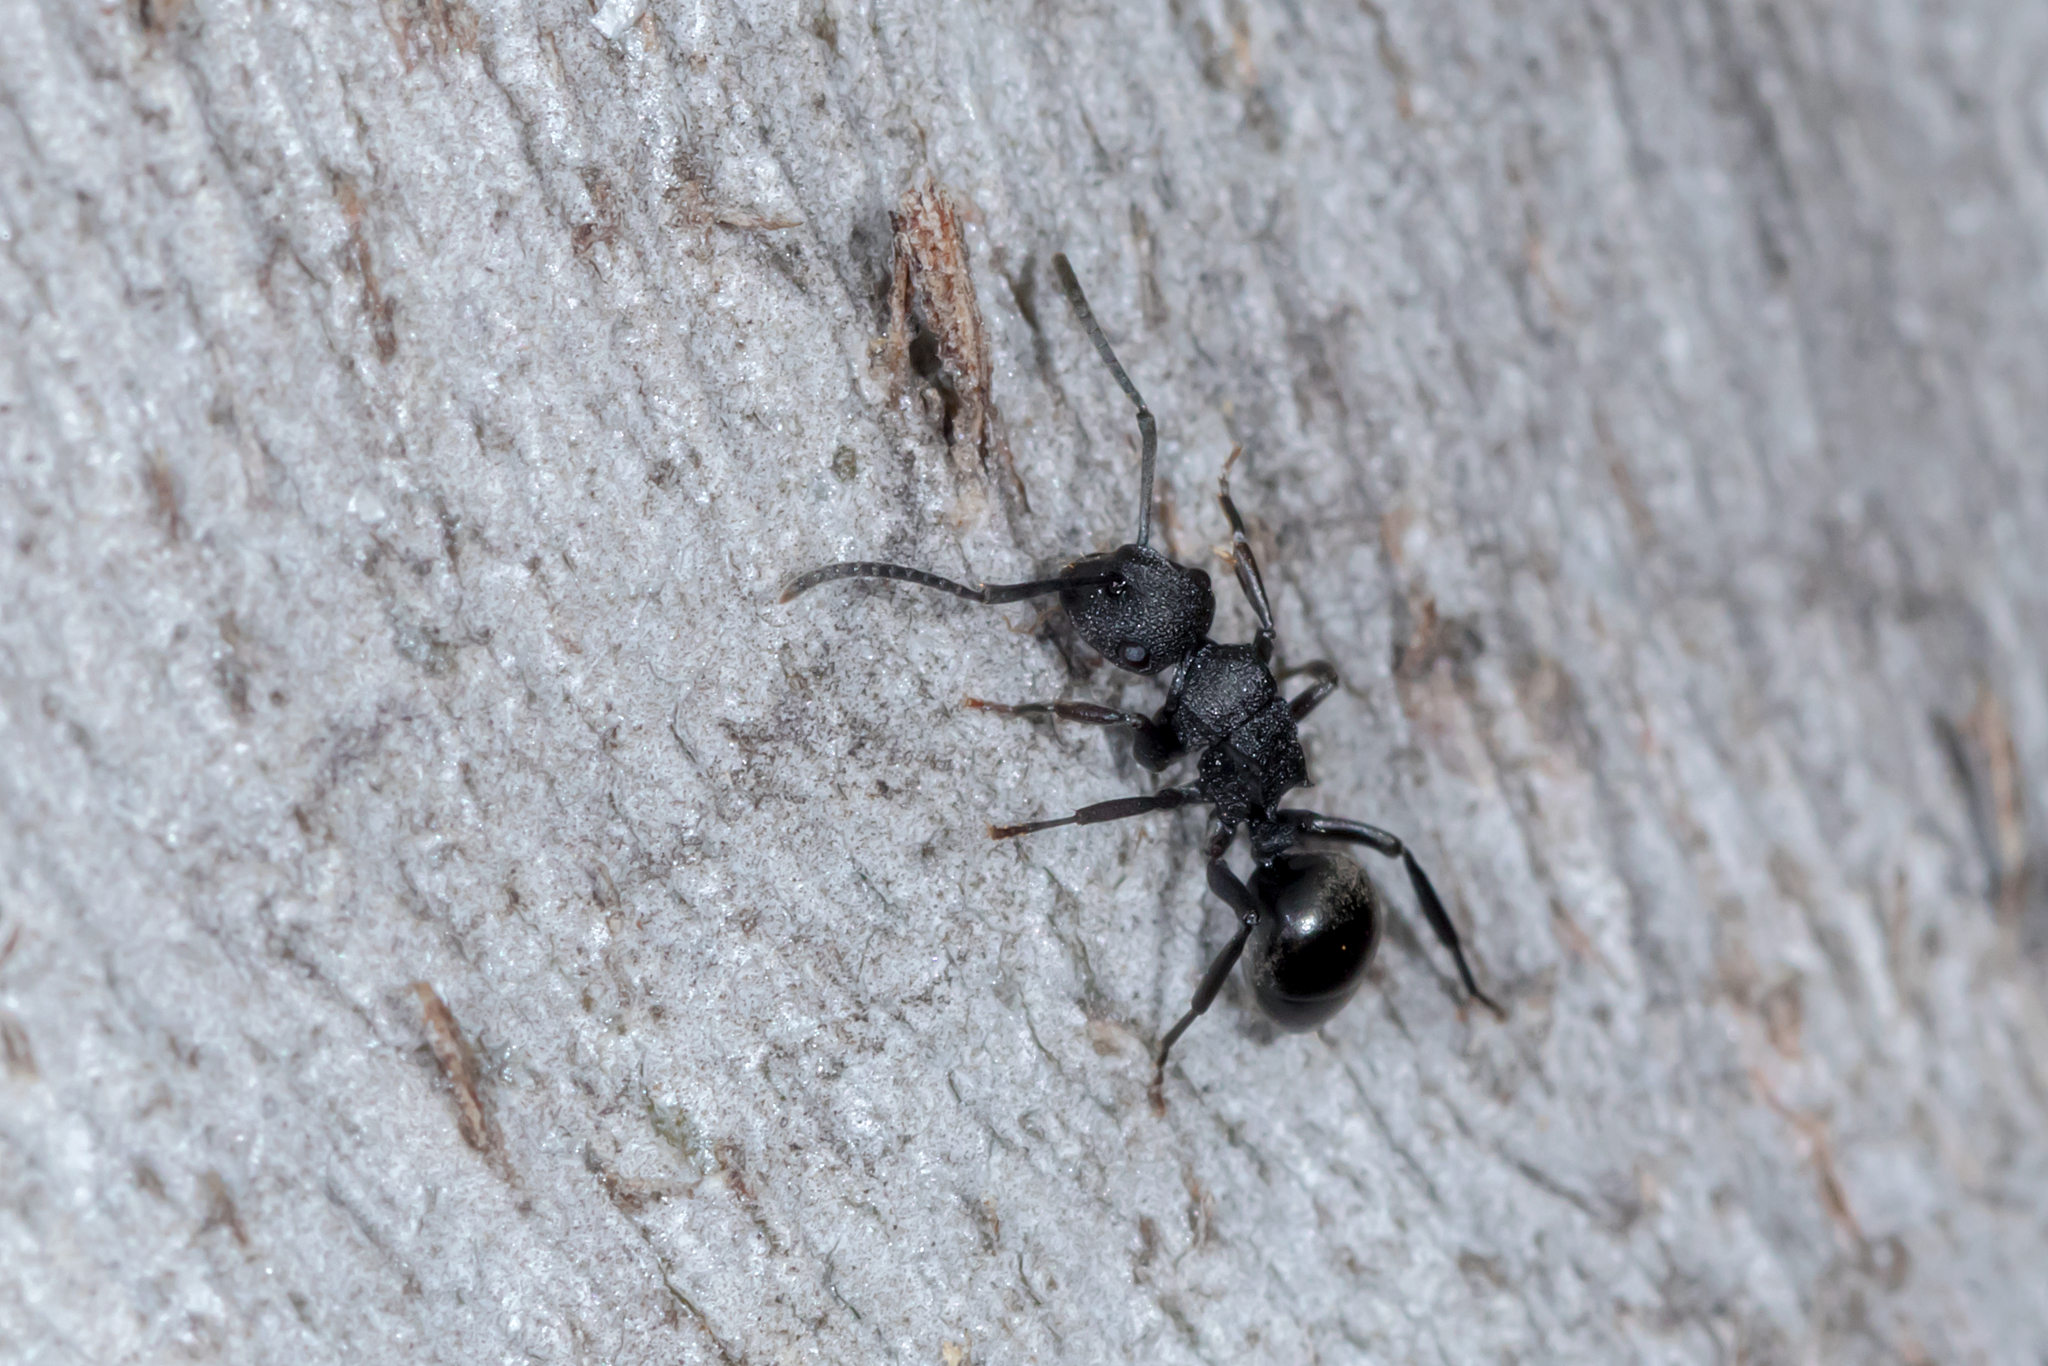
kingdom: Animalia
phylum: Arthropoda
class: Insecta
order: Hymenoptera
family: Formicidae
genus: Polyrhachis
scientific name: Polyrhachis phryne
